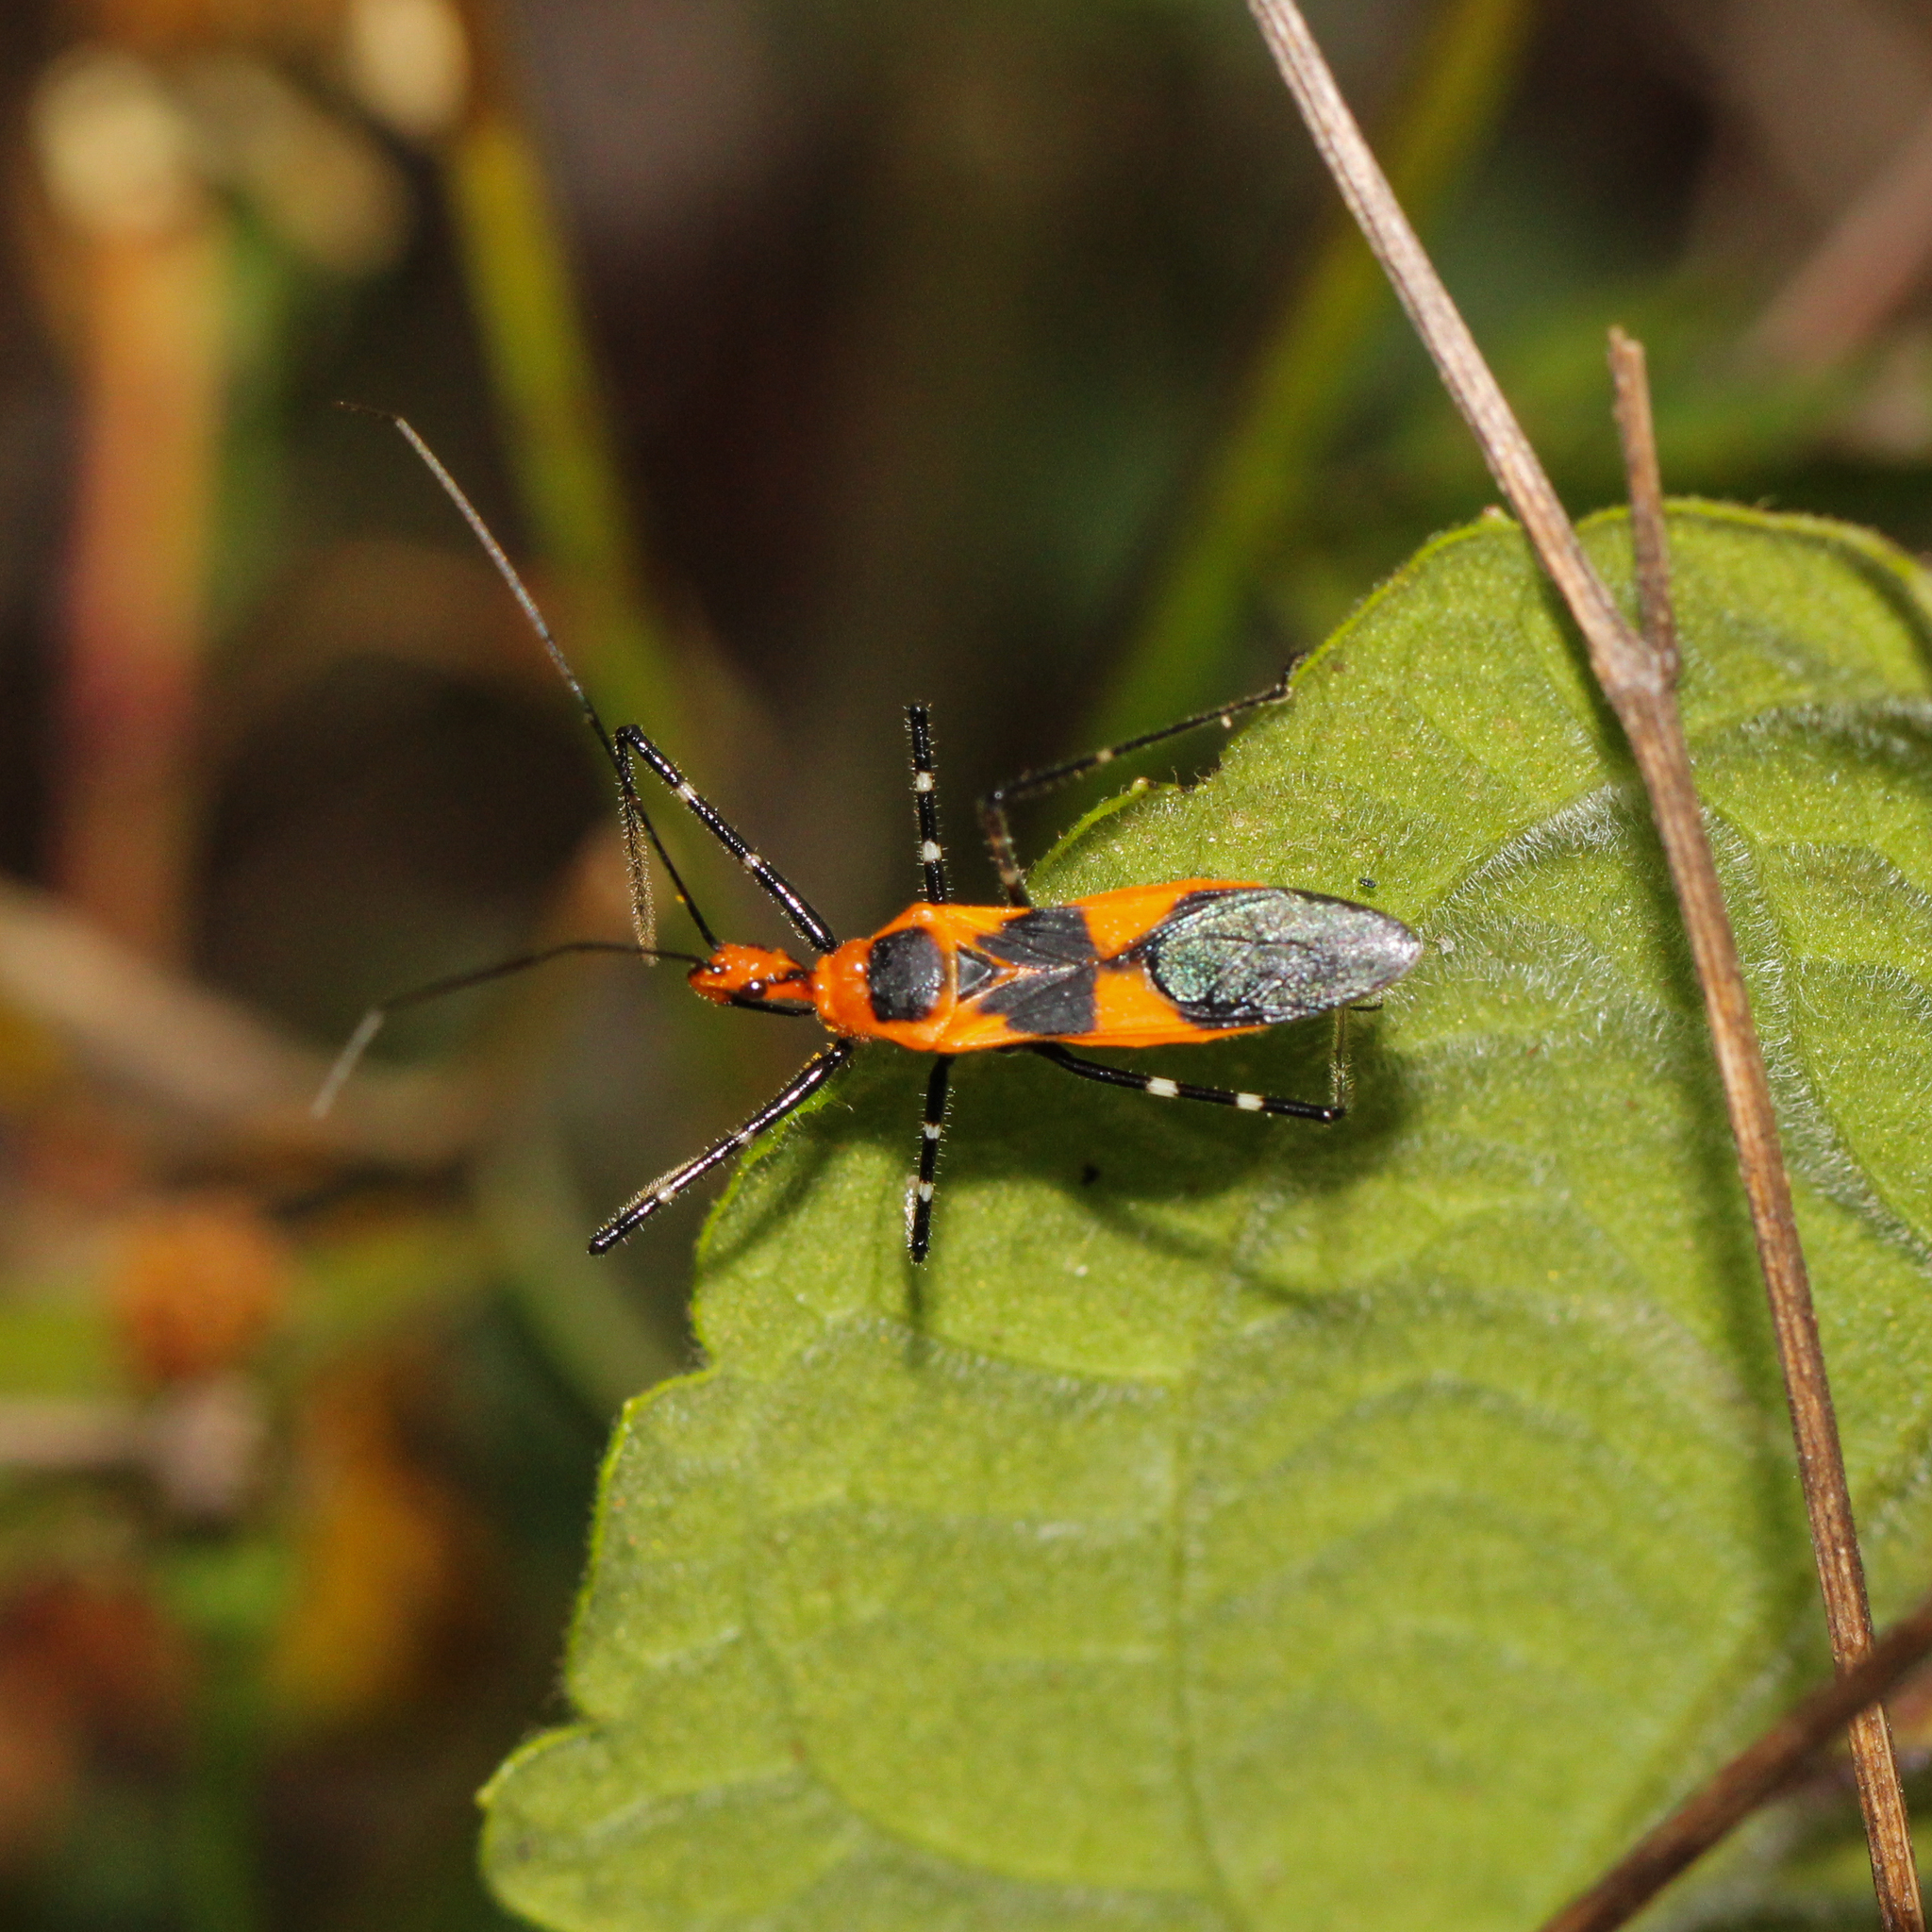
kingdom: Animalia
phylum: Arthropoda
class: Insecta
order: Hemiptera
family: Reduviidae
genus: Zelus
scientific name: Zelus longipes
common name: Milkweed assassin bug
